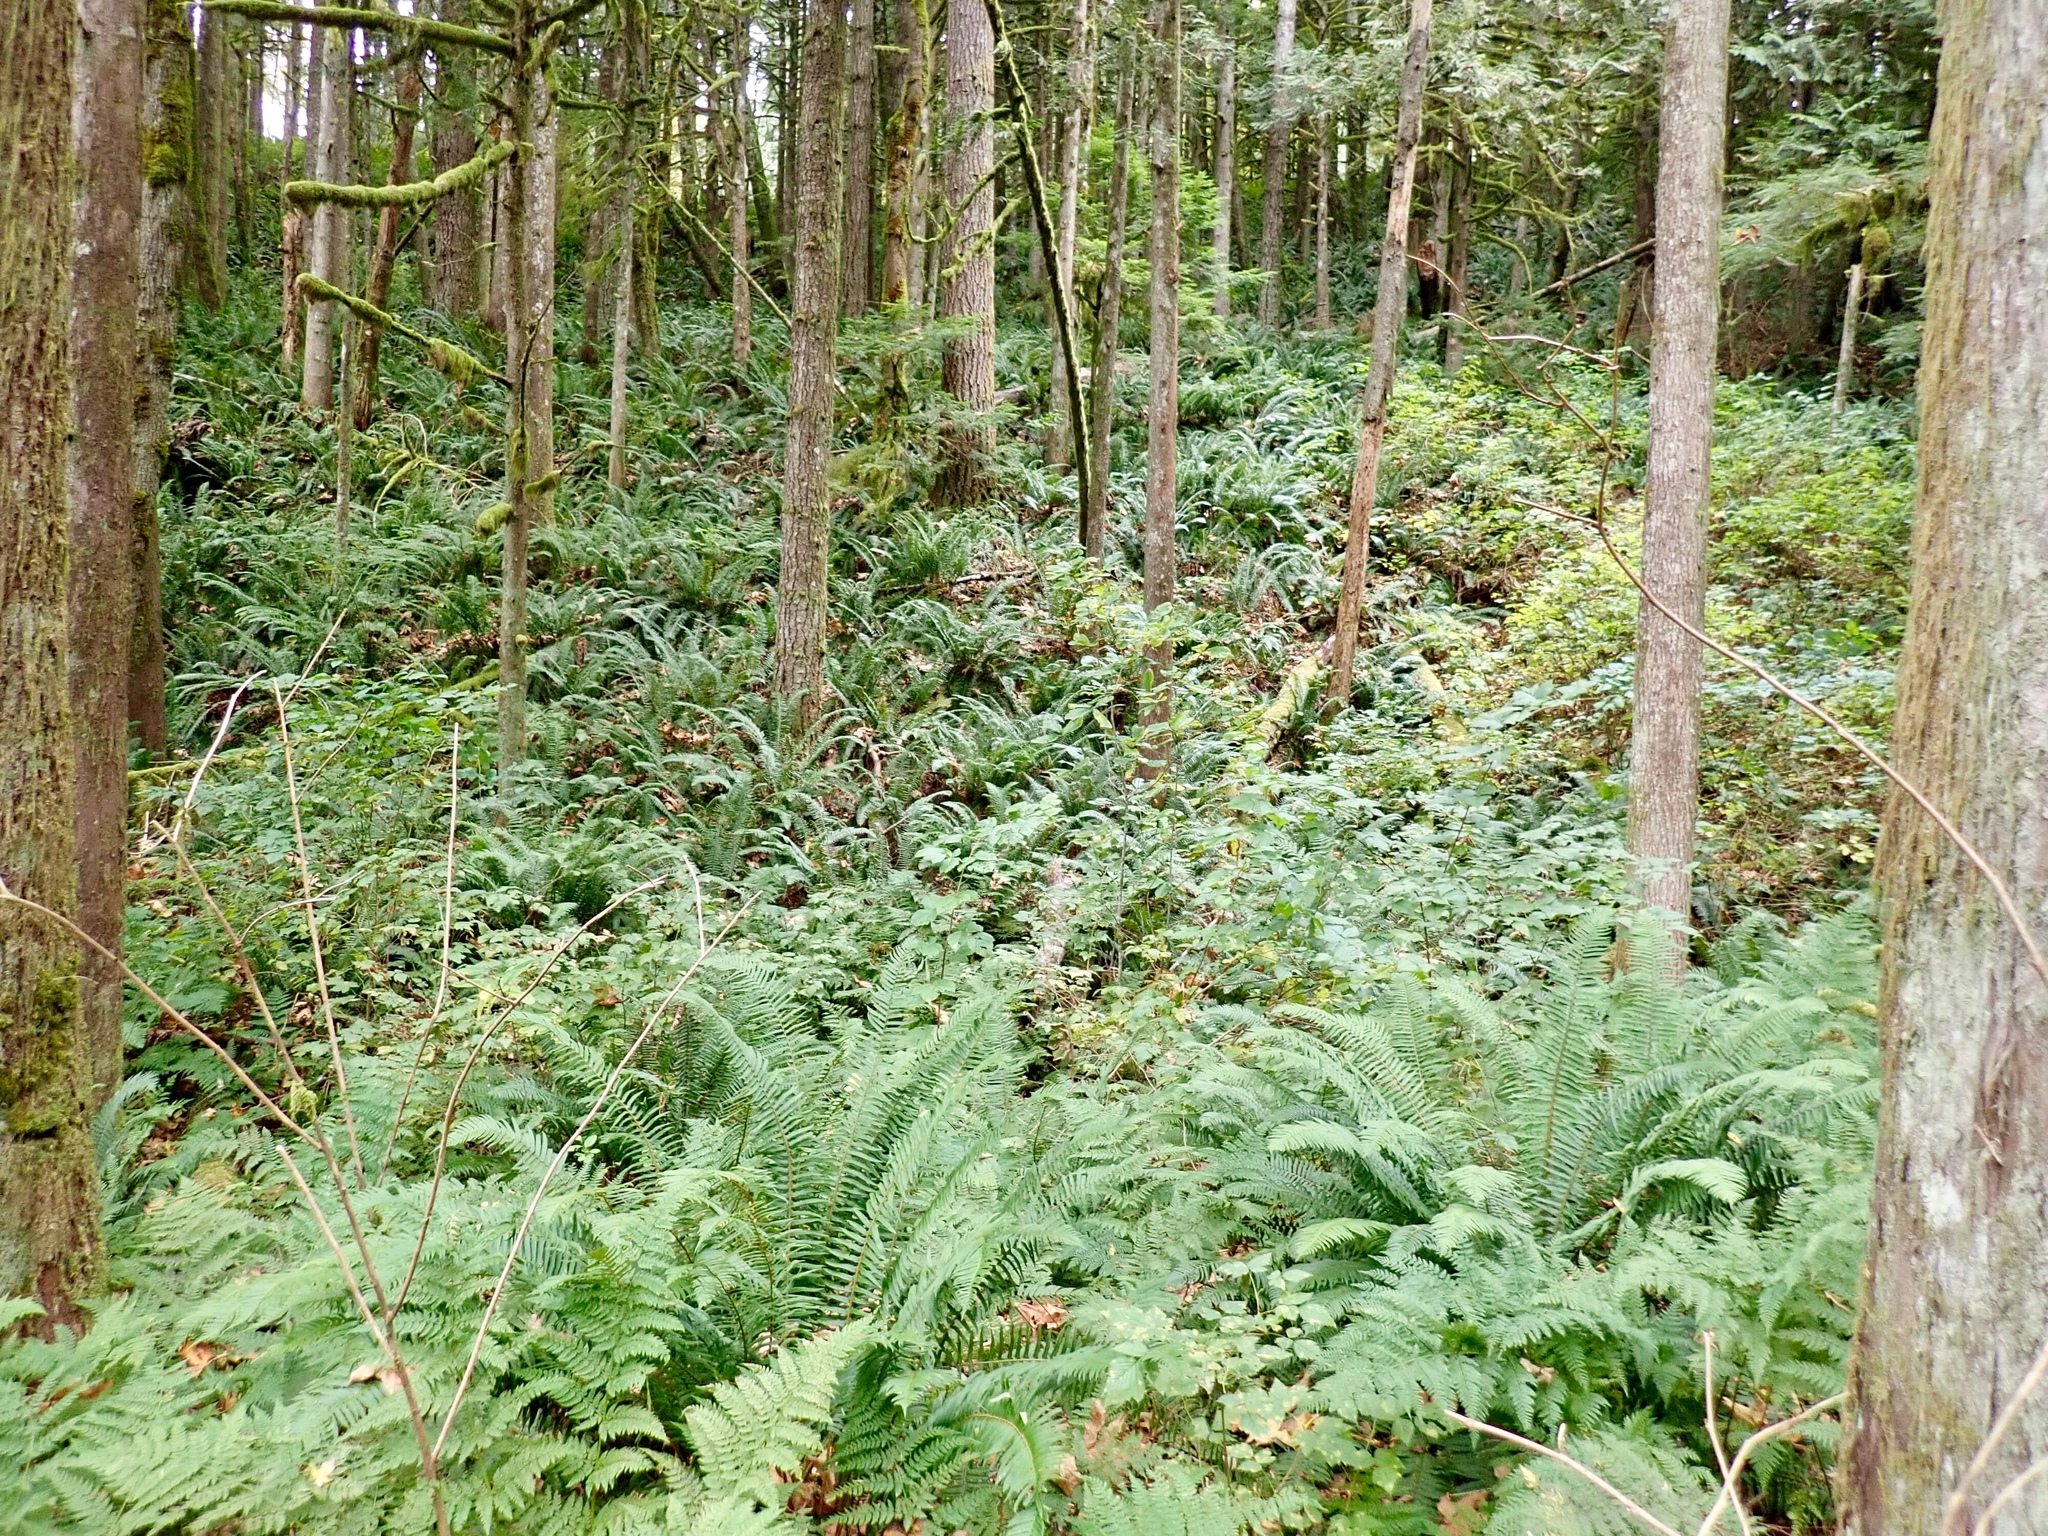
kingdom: Plantae
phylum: Tracheophyta
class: Polypodiopsida
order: Polypodiales
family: Dryopteridaceae
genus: Polystichum
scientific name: Polystichum munitum
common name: Western sword-fern
